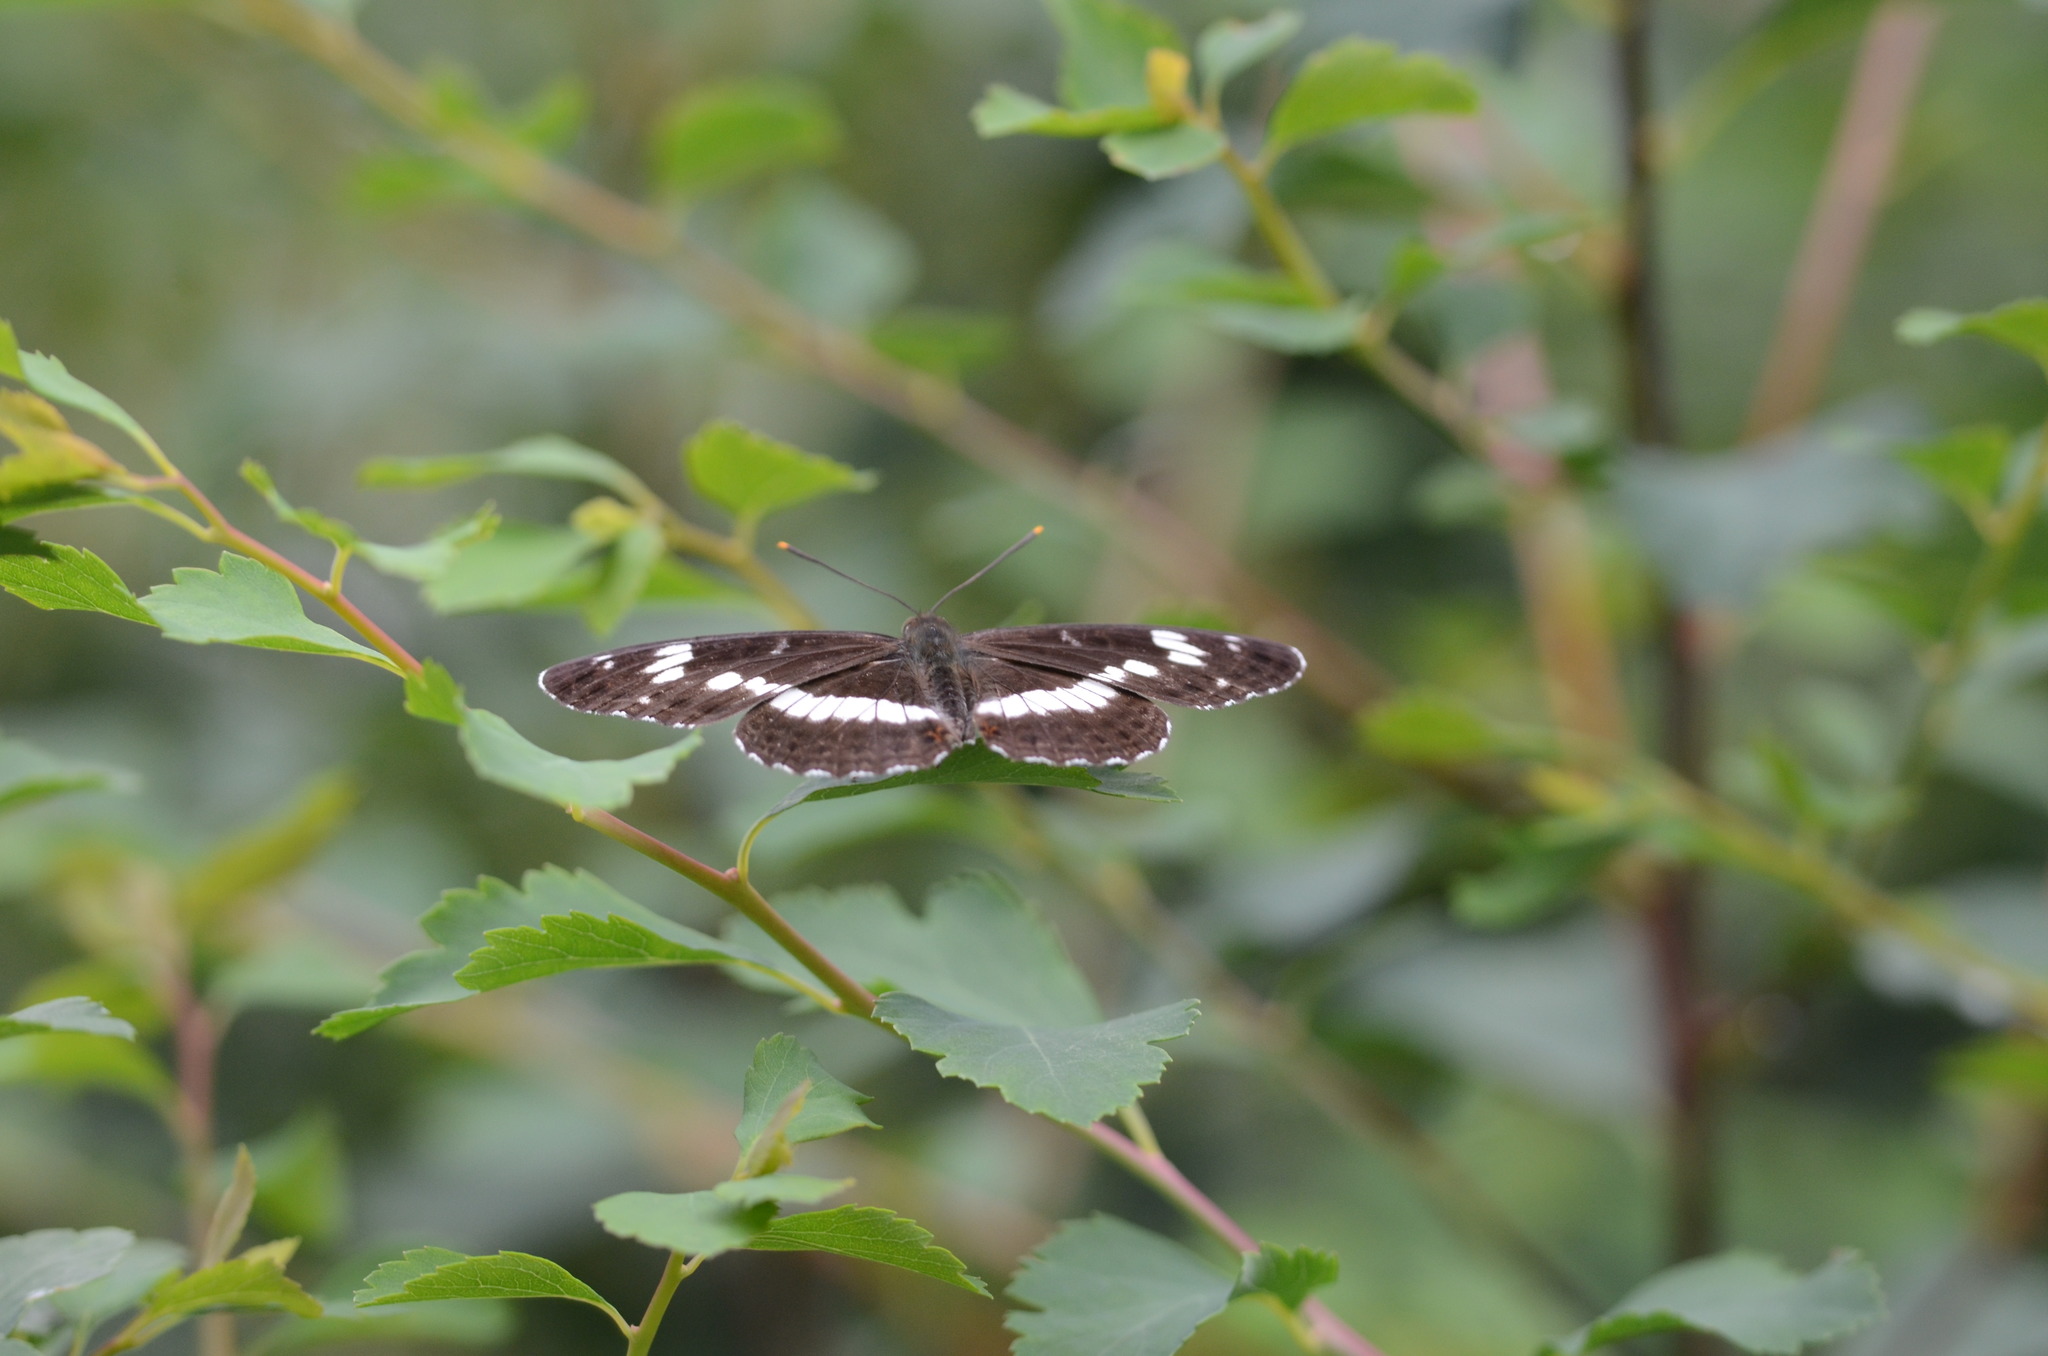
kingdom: Animalia
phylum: Arthropoda
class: Insecta
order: Lepidoptera
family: Nymphalidae
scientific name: Nymphalidae
